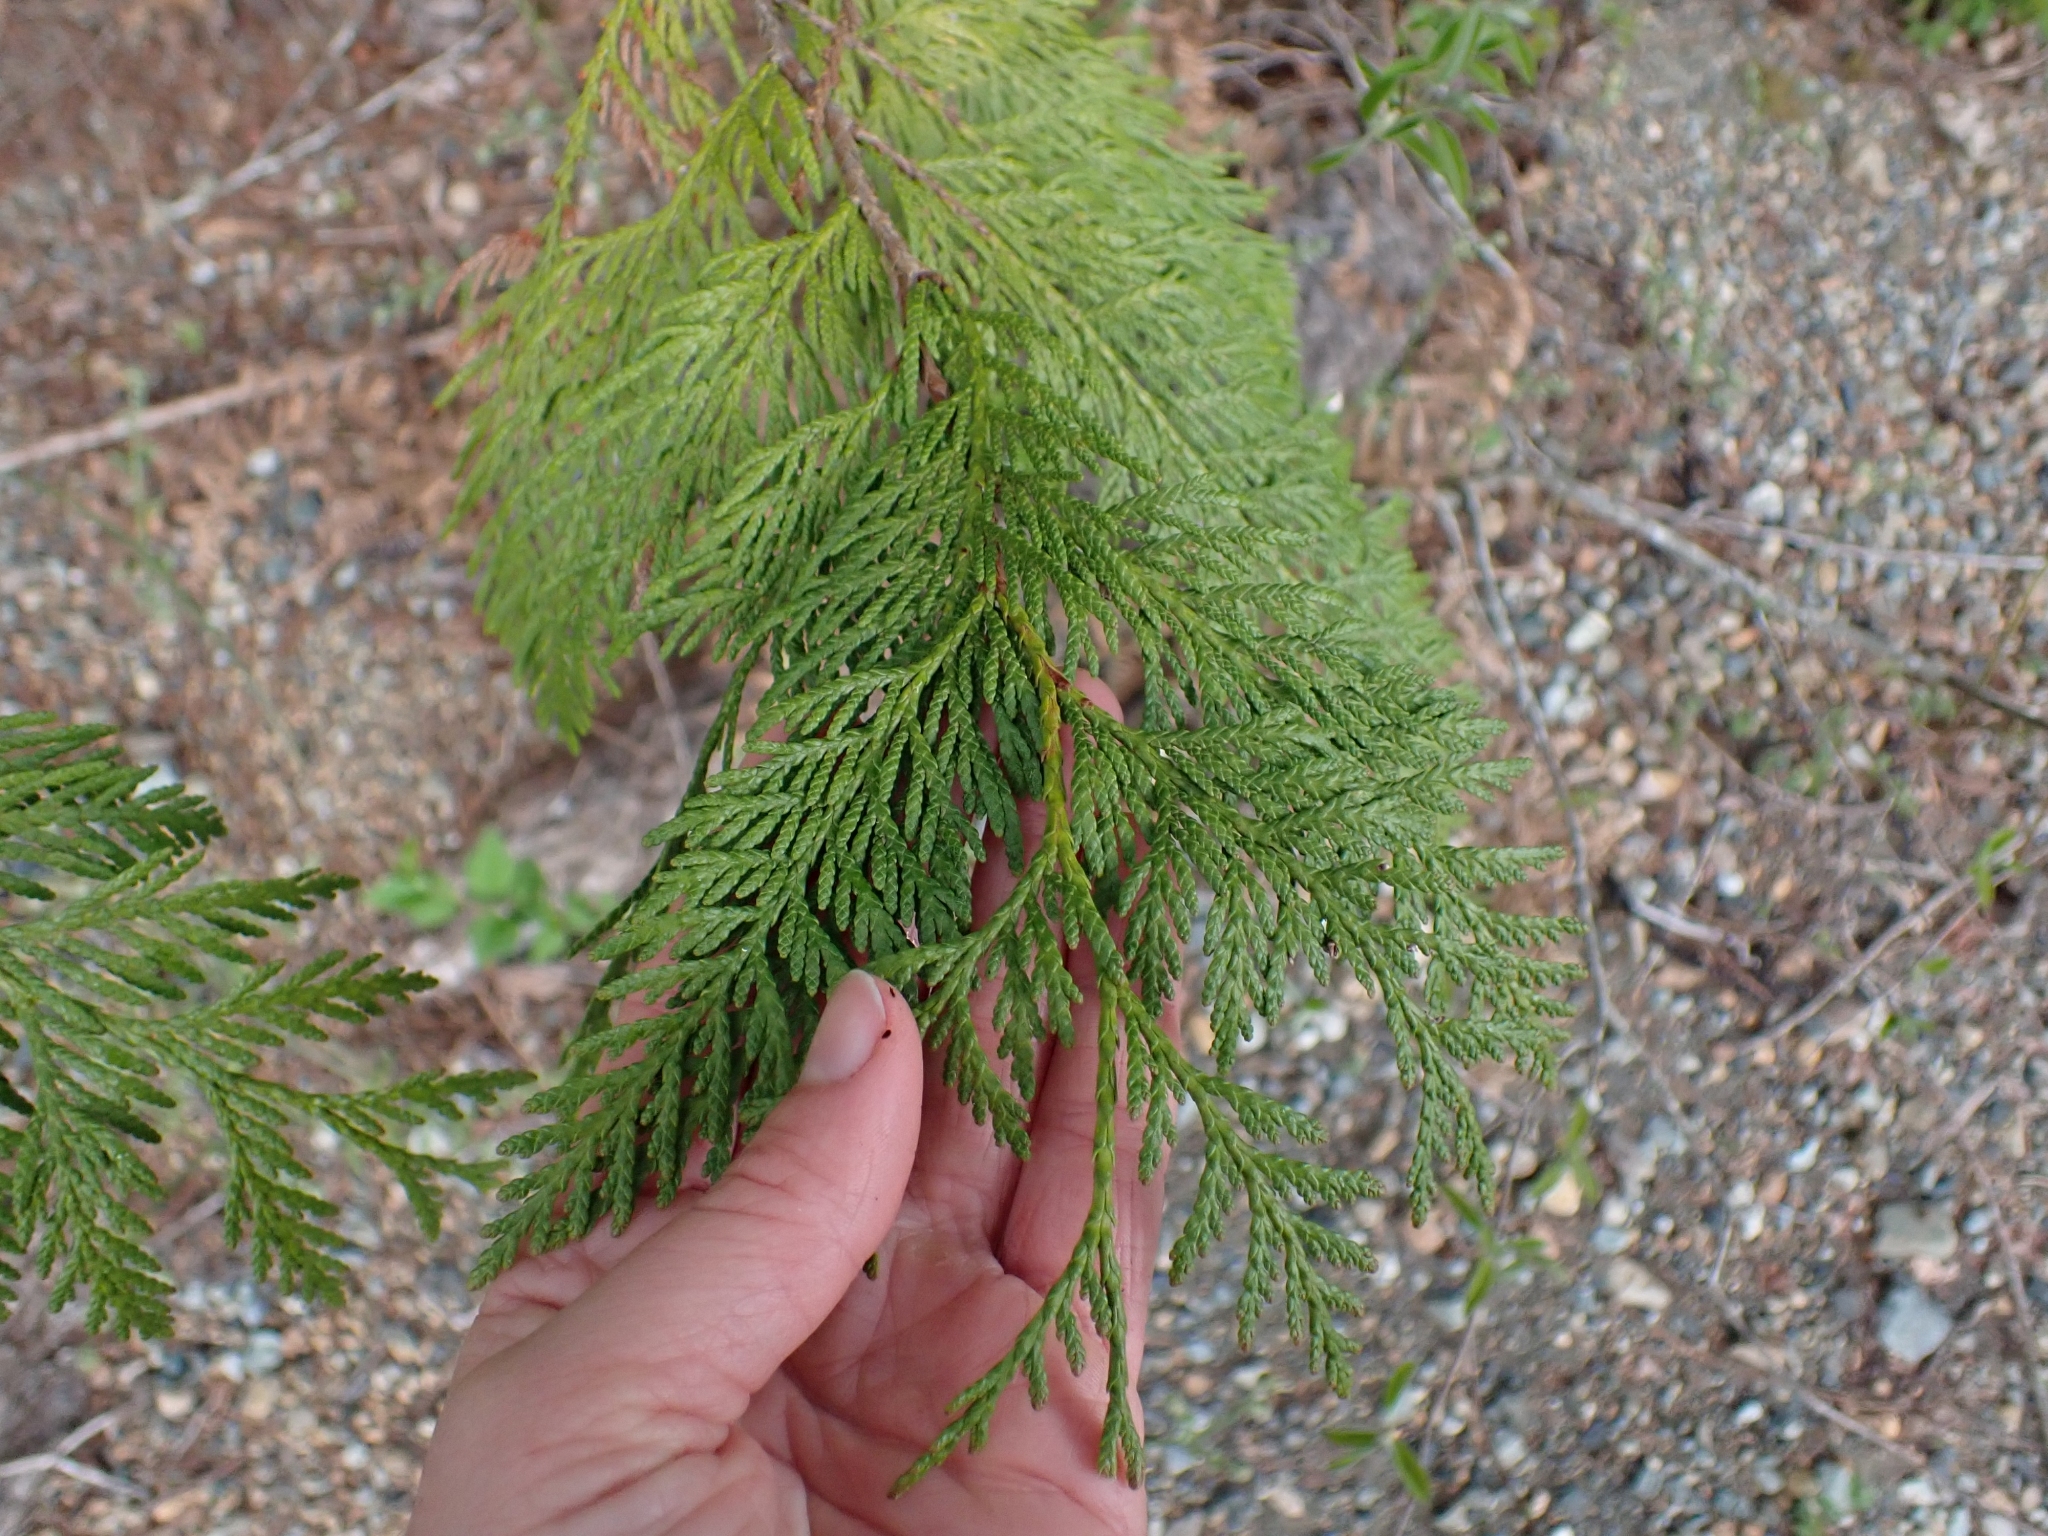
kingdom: Plantae
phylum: Tracheophyta
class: Pinopsida
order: Pinales
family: Cupressaceae
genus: Thuja
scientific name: Thuja plicata
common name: Western red-cedar
